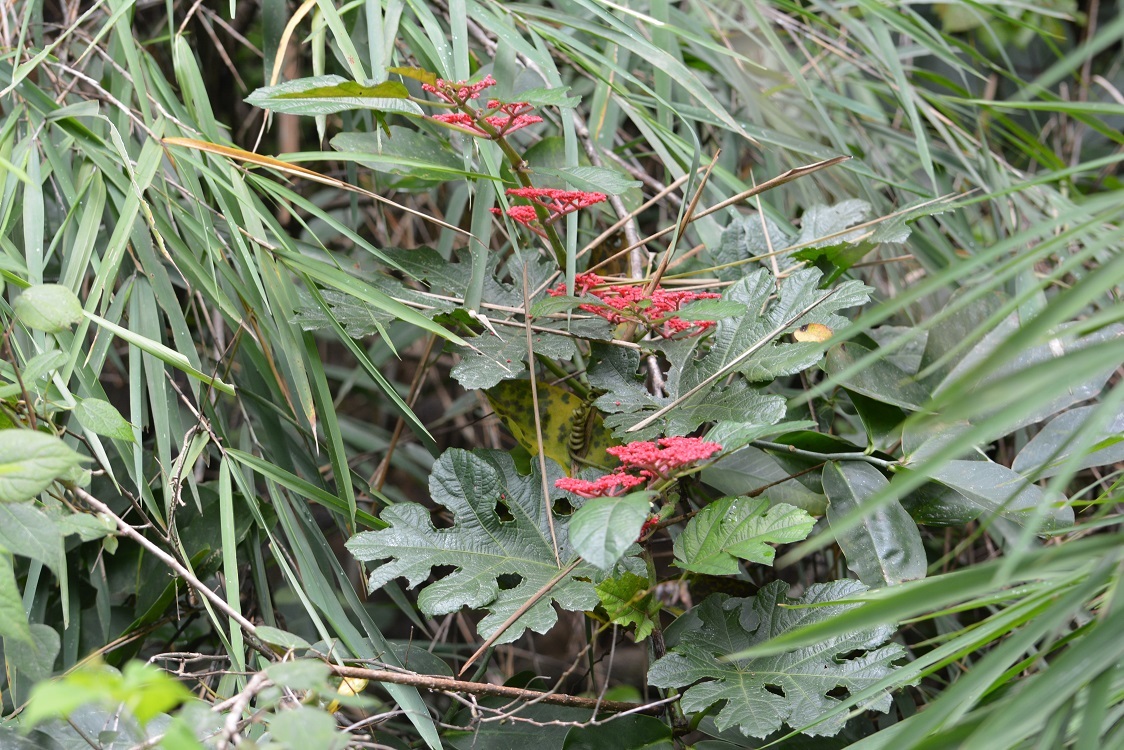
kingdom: Plantae
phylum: Tracheophyta
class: Magnoliopsida
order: Vitales
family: Vitaceae
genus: Cissus
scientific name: Cissus tiliacea
